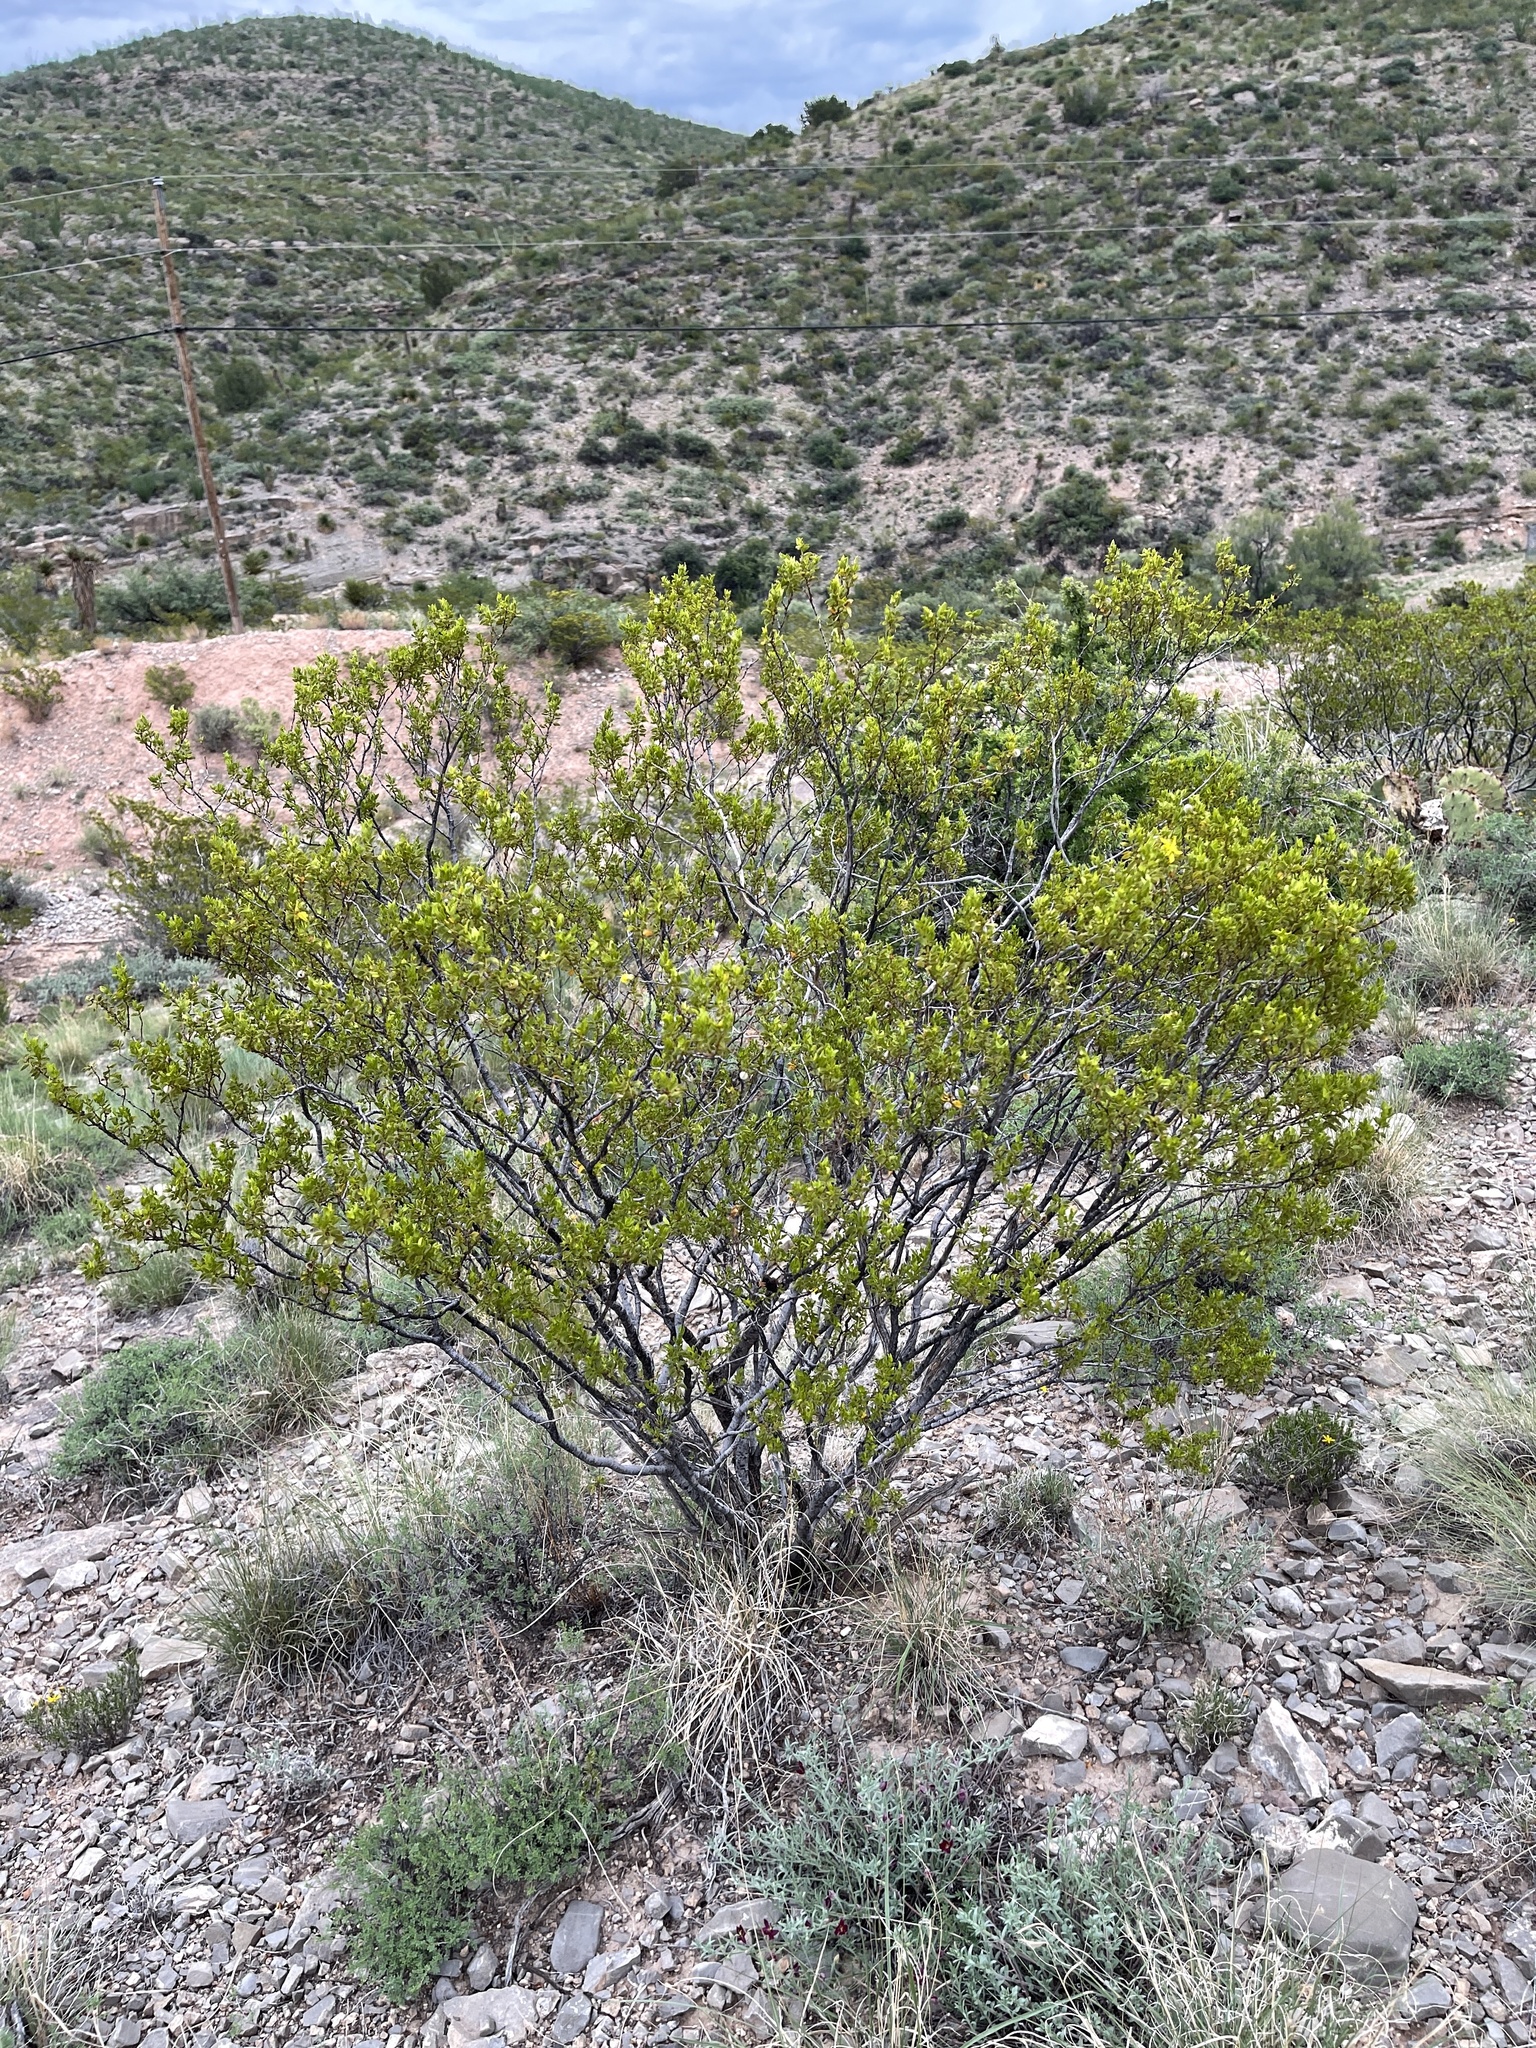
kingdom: Plantae
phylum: Tracheophyta
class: Magnoliopsida
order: Zygophyllales
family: Zygophyllaceae
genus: Larrea
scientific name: Larrea tridentata
